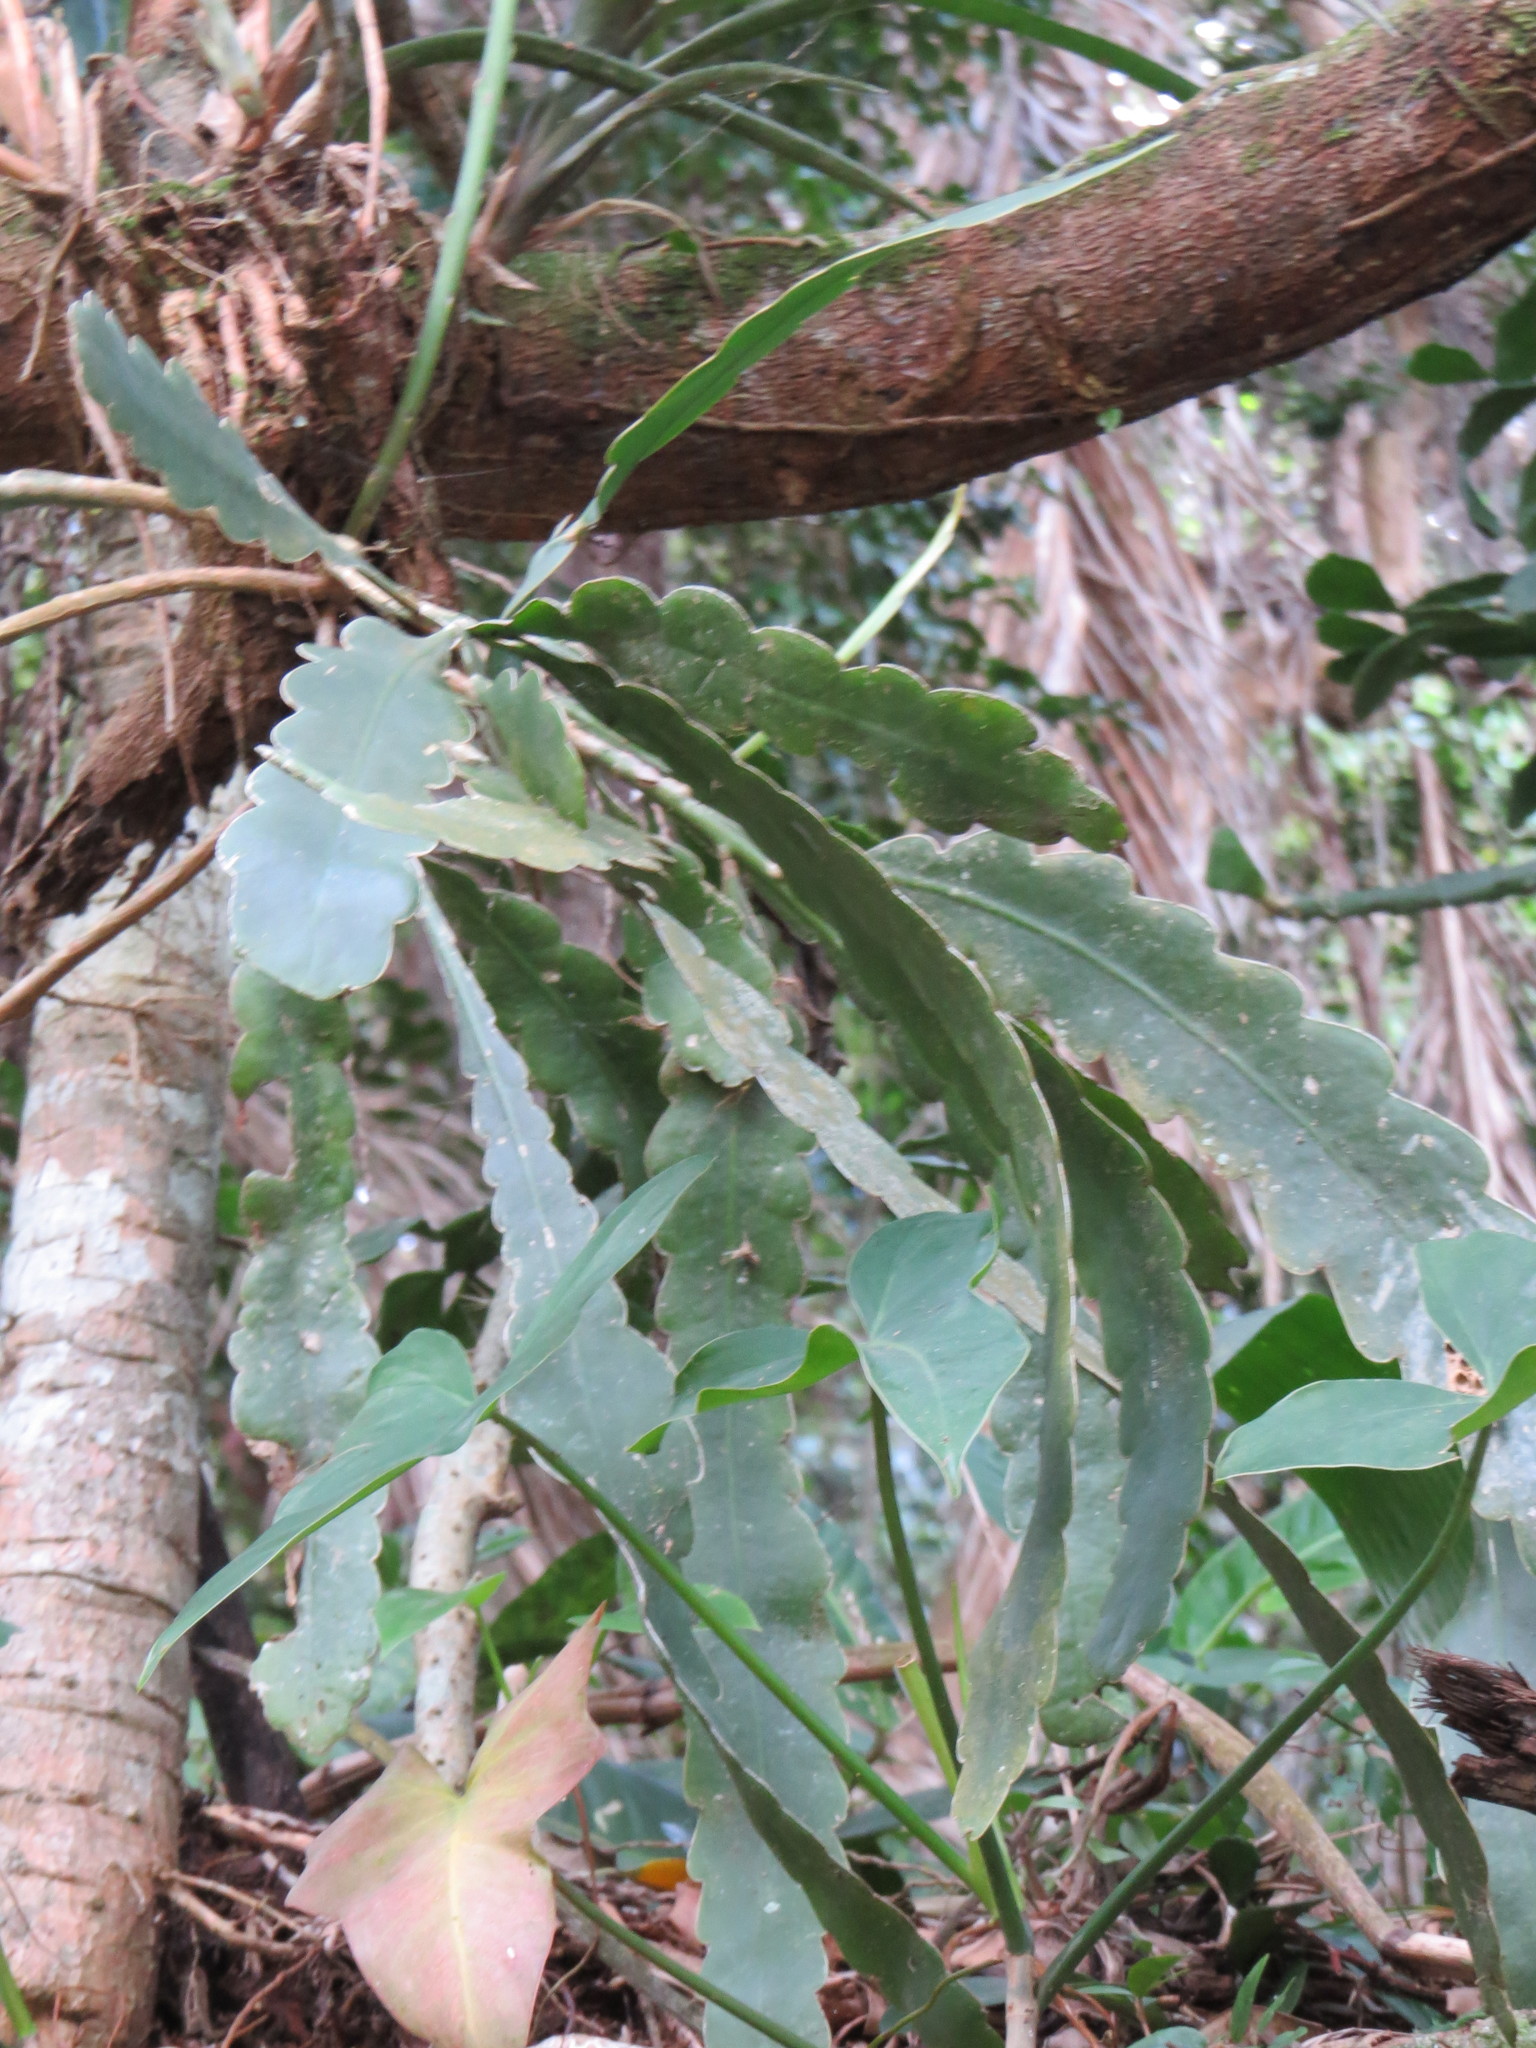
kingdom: Plantae
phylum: Tracheophyta
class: Magnoliopsida
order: Caryophyllales
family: Cactaceae
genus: Epiphyllum
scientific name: Epiphyllum phyllanthus
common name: Climbing cactus
